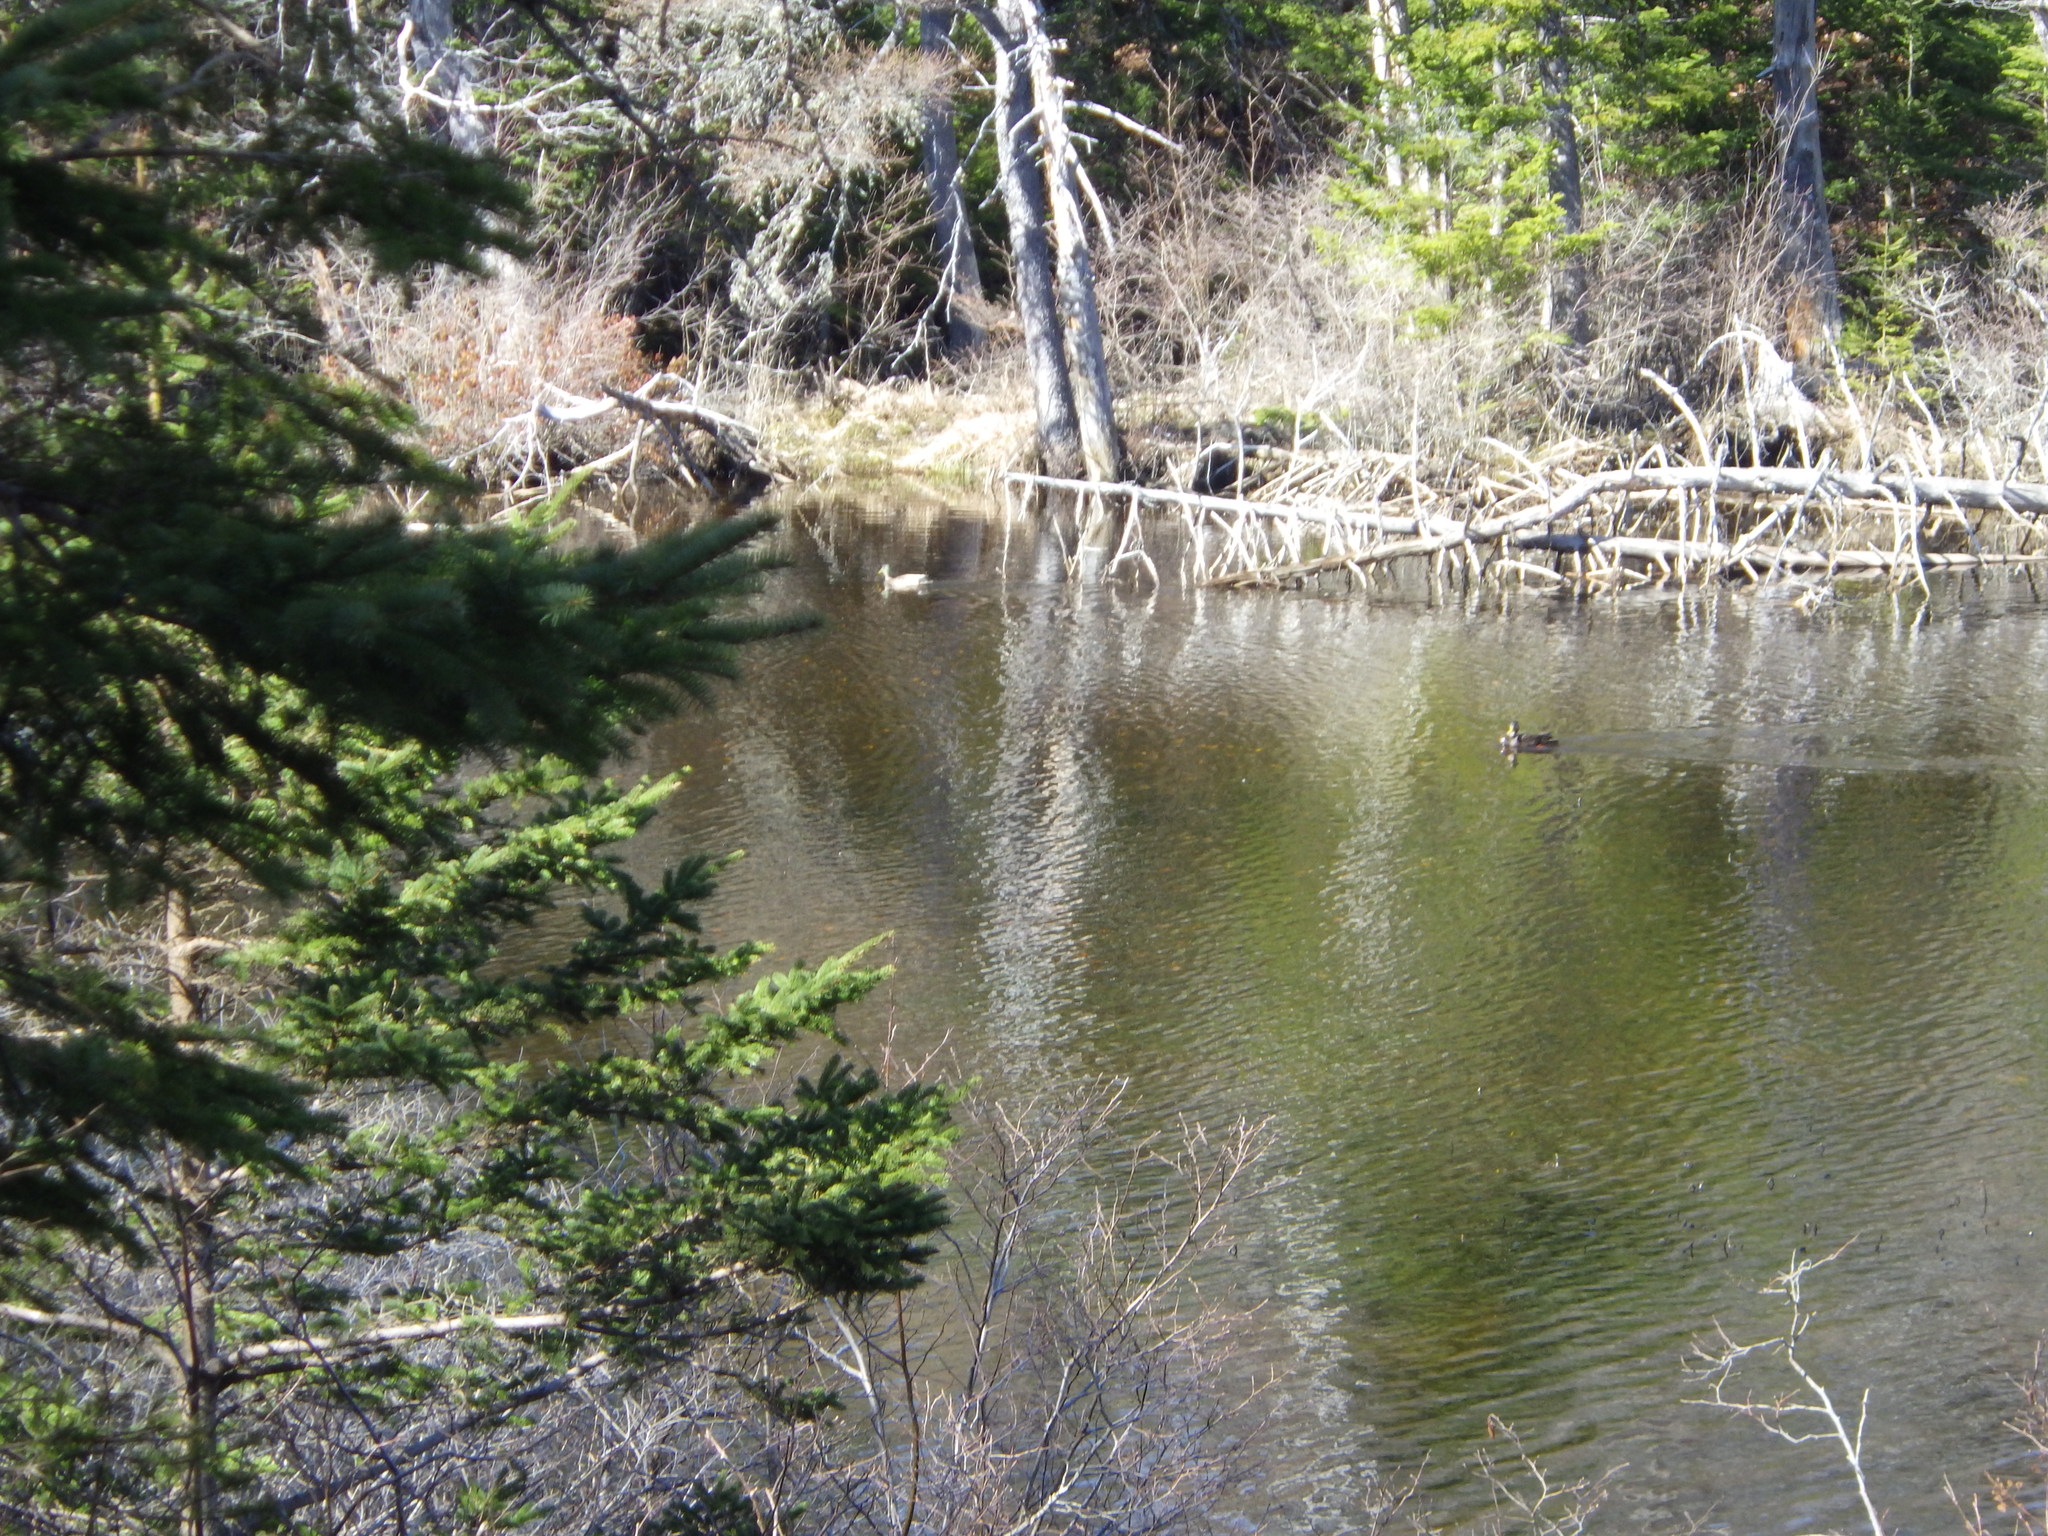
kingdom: Animalia
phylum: Chordata
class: Aves
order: Anseriformes
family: Anatidae
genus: Anas
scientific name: Anas rubripes
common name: American black duck
